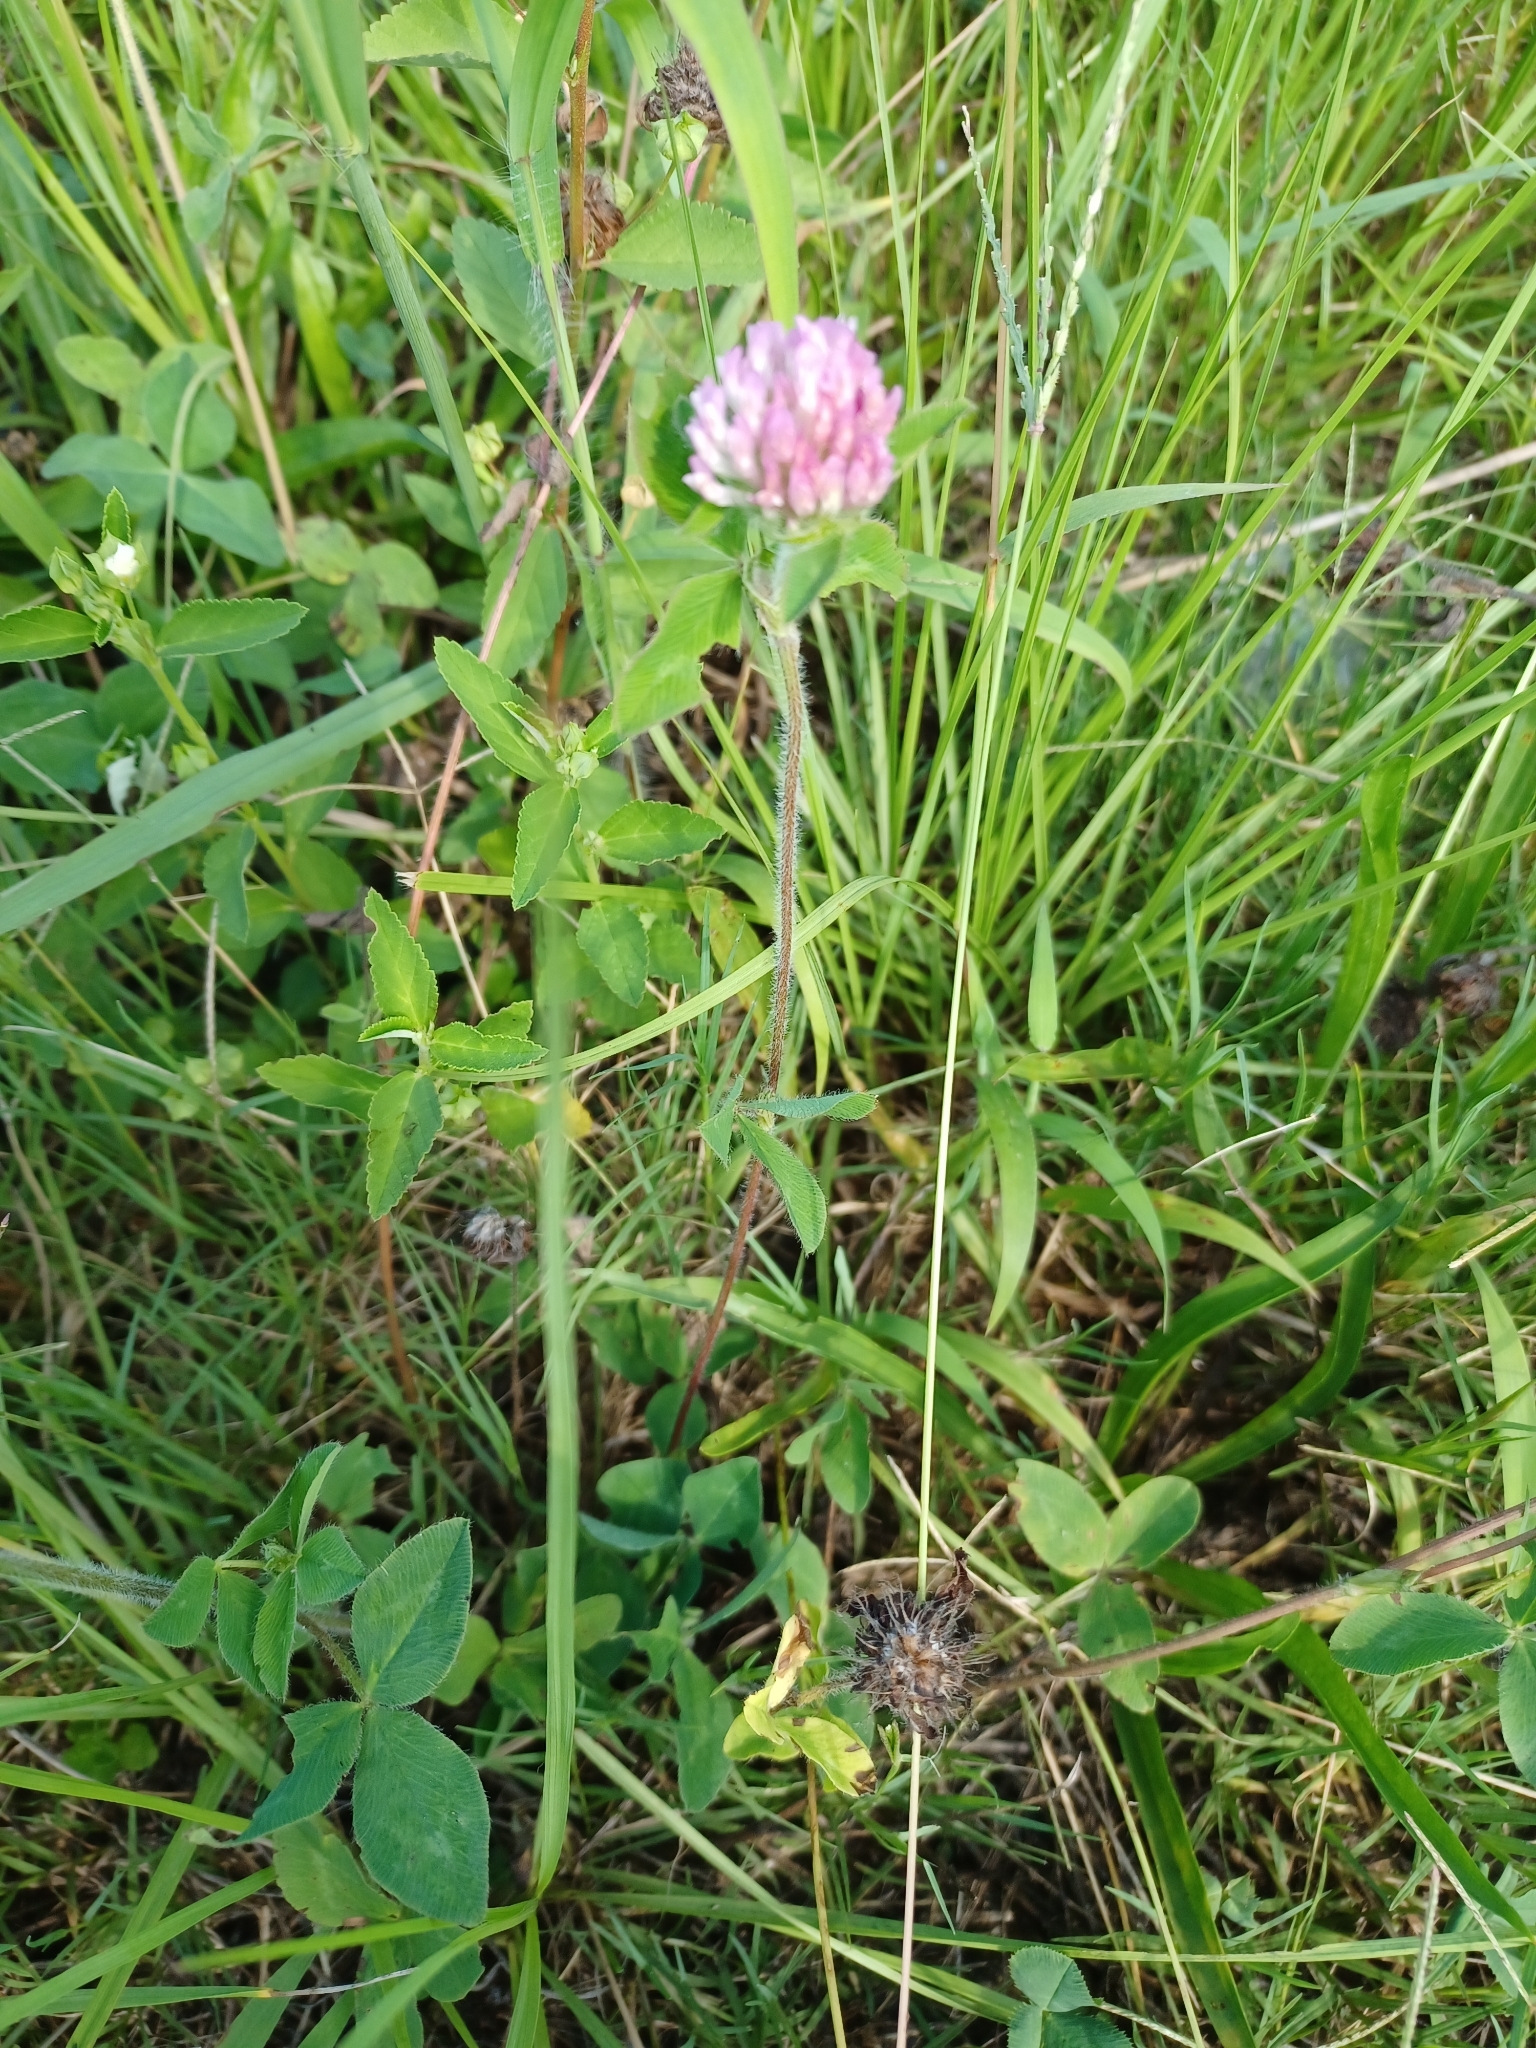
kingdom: Plantae
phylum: Tracheophyta
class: Magnoliopsida
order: Fabales
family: Fabaceae
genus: Trifolium
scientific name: Trifolium pratense
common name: Red clover
